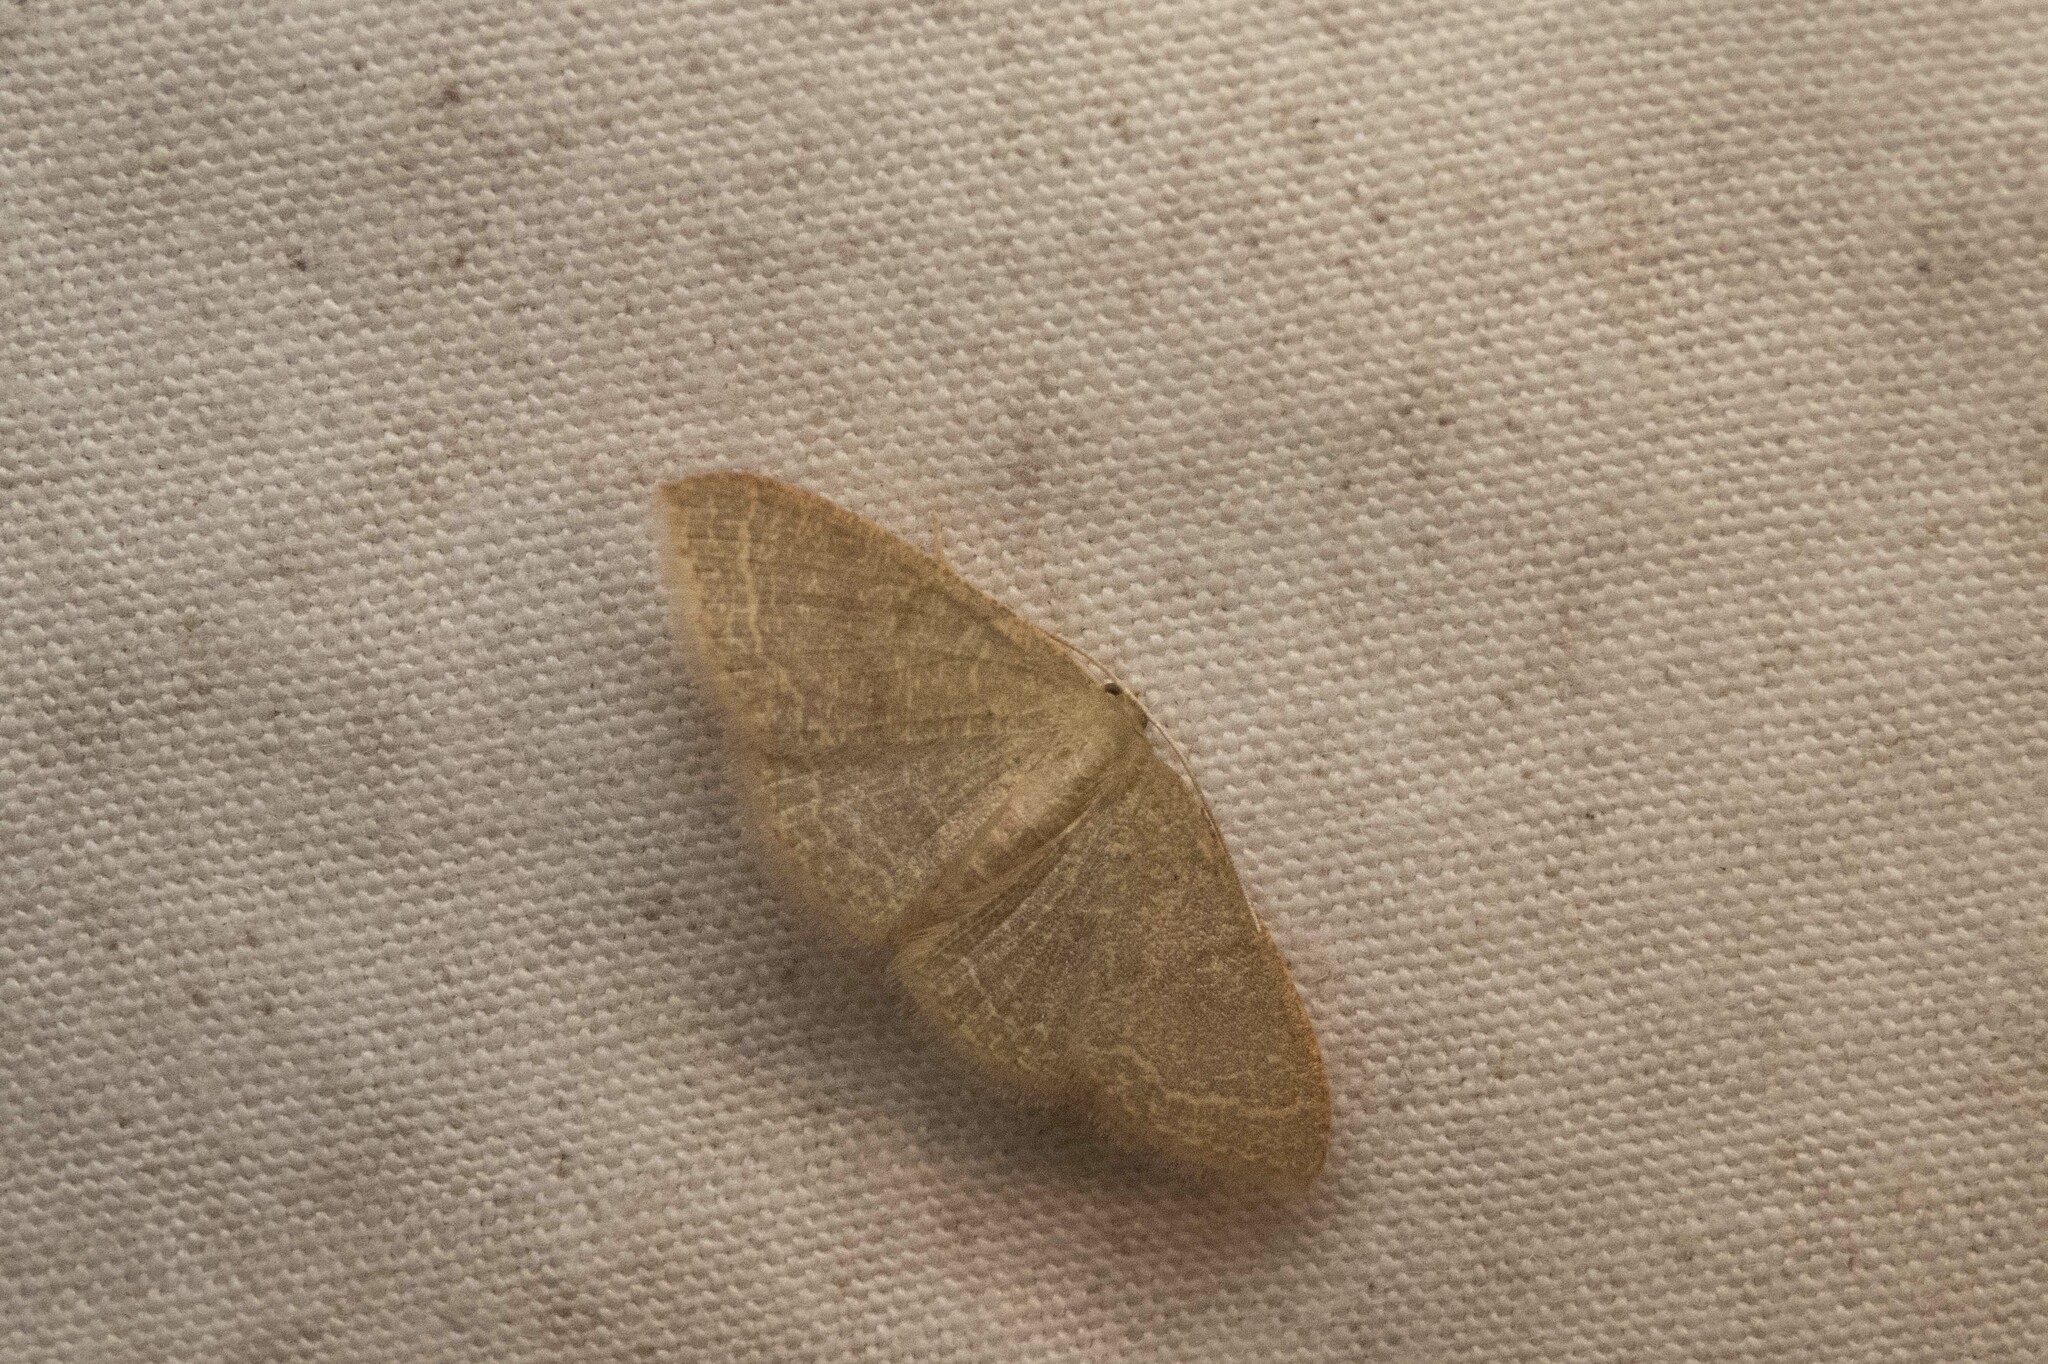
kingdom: Animalia
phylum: Arthropoda
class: Insecta
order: Lepidoptera
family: Geometridae
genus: Pleuroprucha
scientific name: Pleuroprucha insulsaria
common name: Common tan wave
